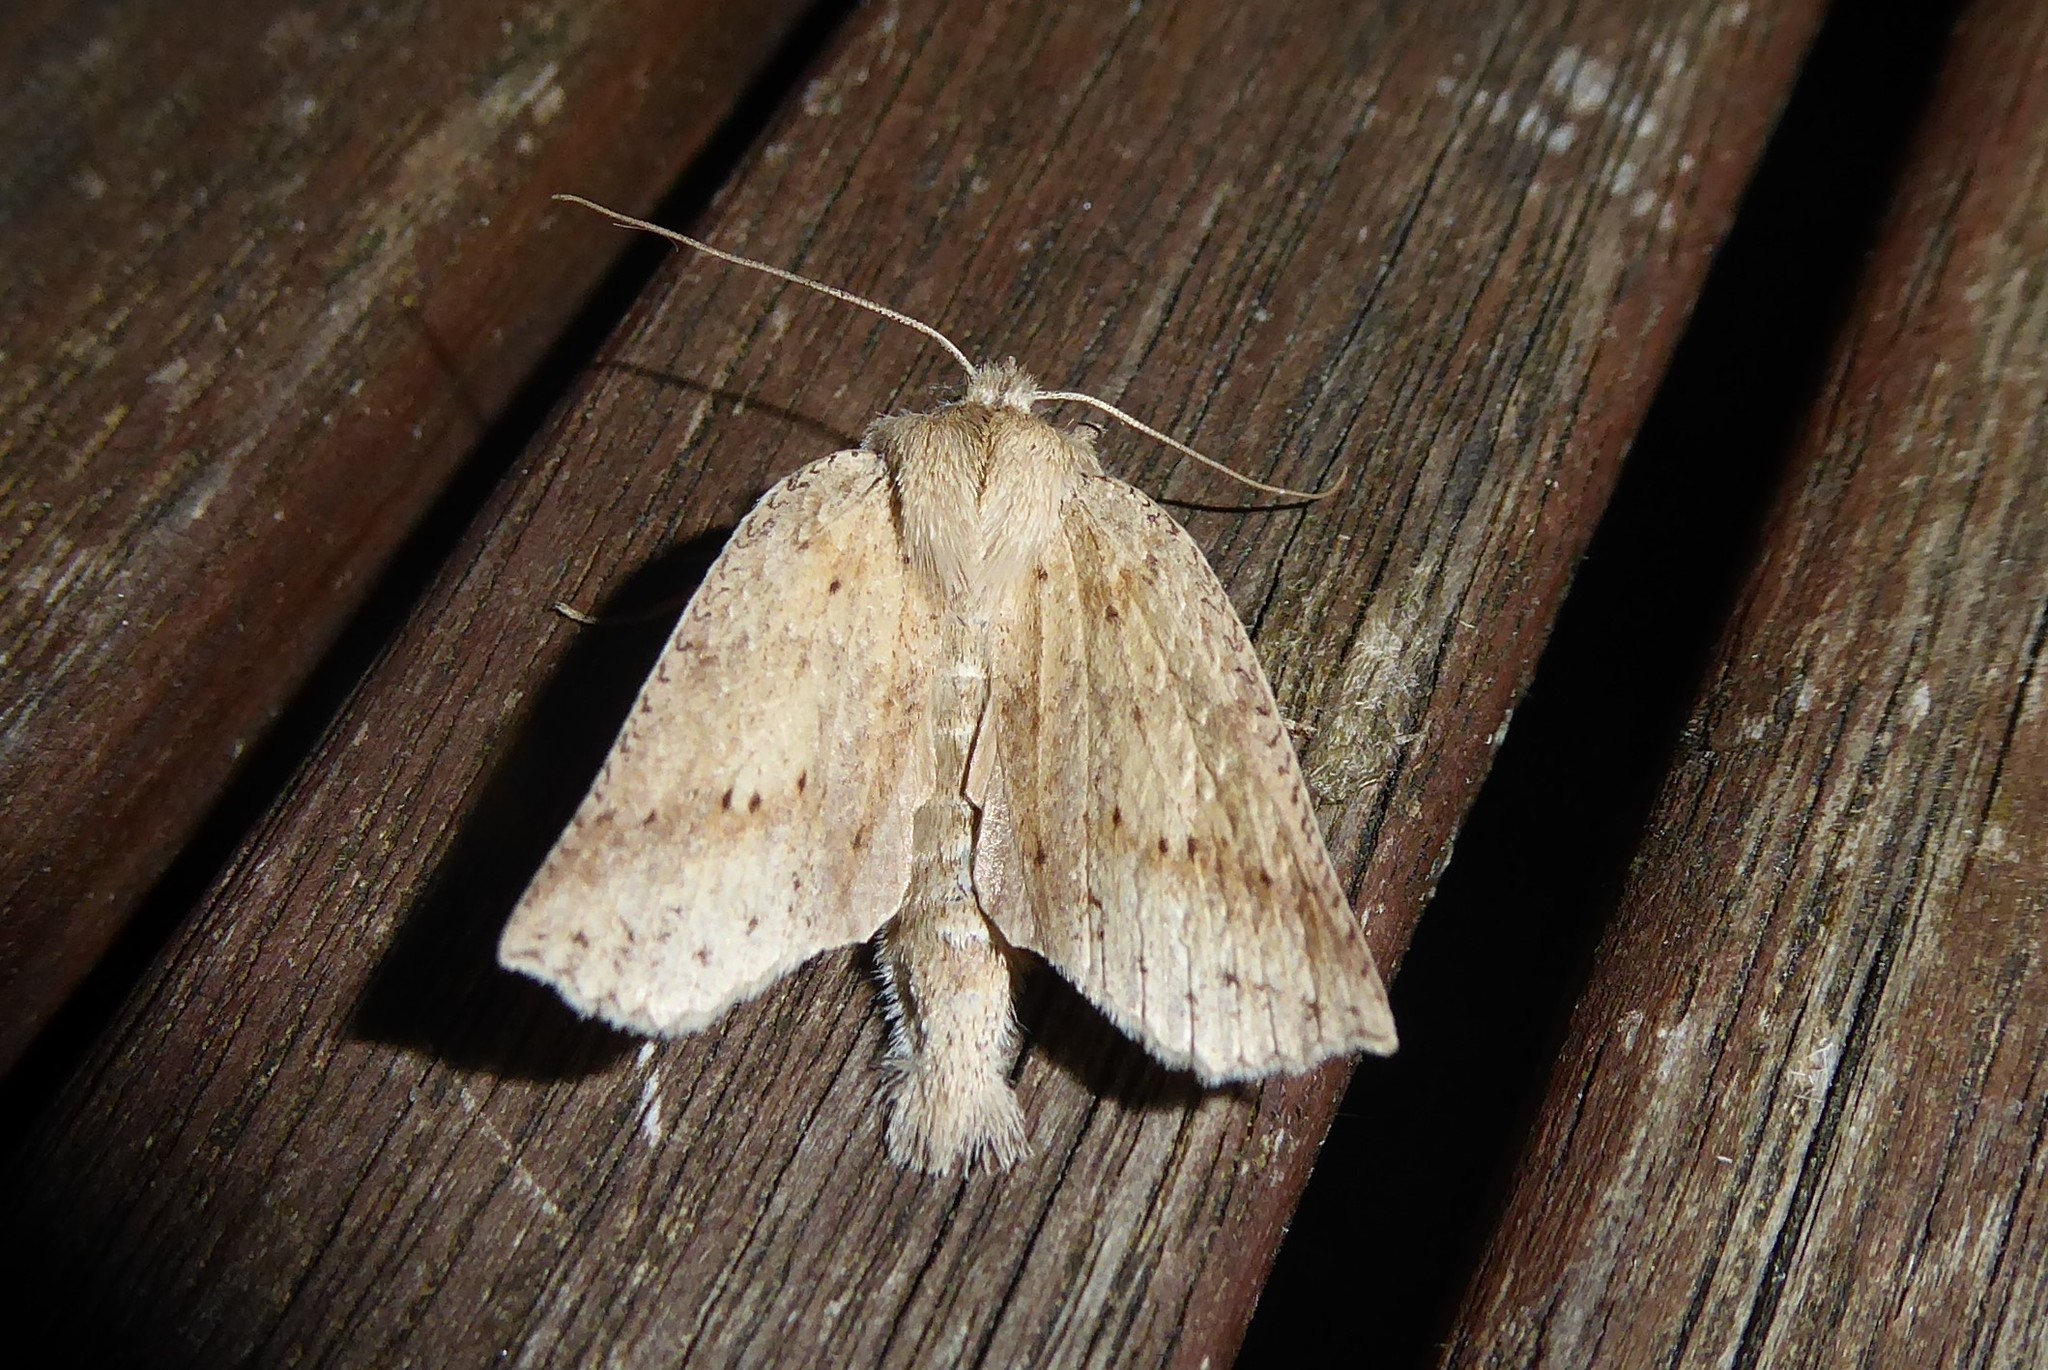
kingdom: Animalia
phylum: Arthropoda
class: Insecta
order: Lepidoptera
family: Geometridae
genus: Declana
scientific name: Declana leptomera
